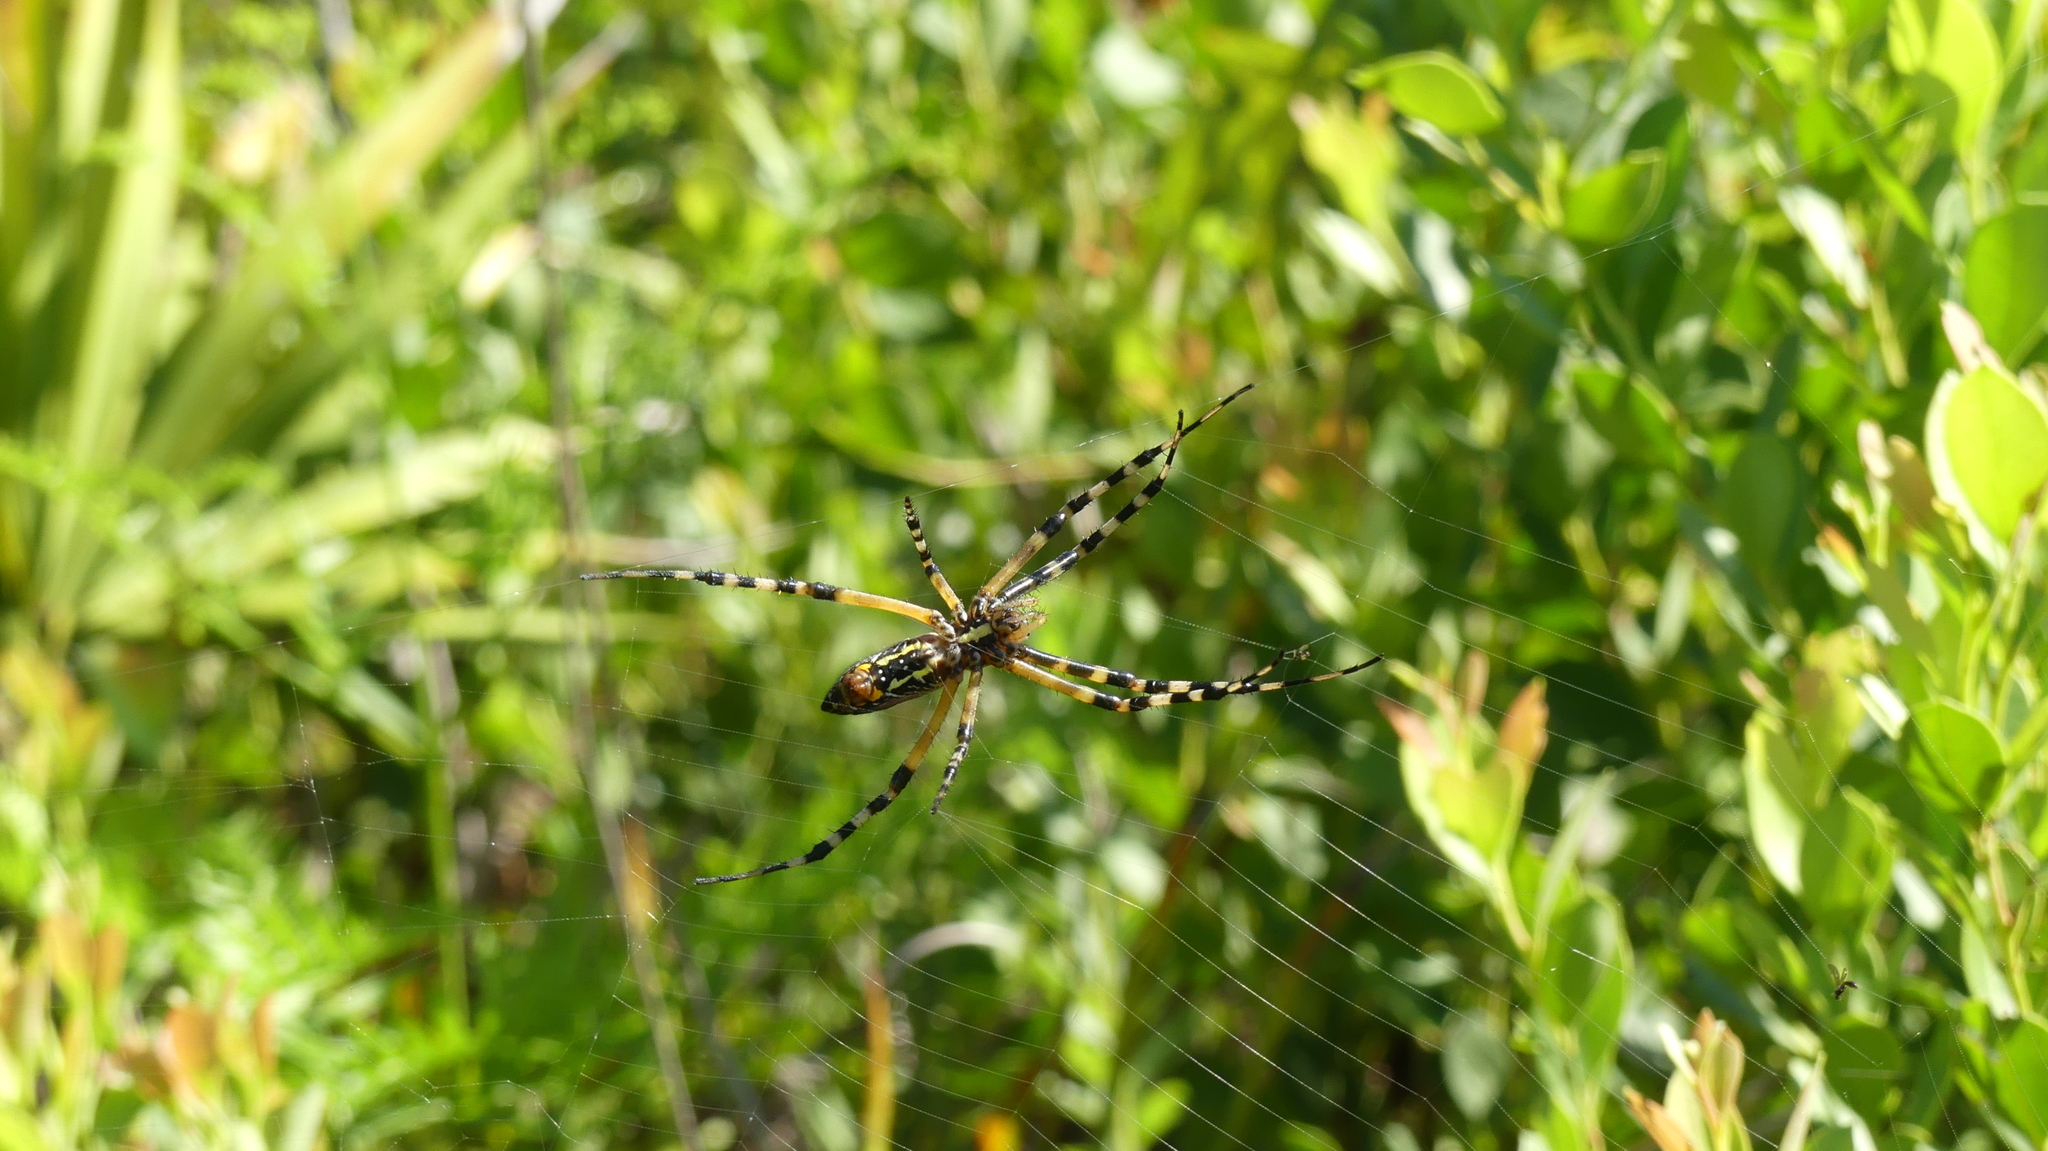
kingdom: Animalia
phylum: Arthropoda
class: Arachnida
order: Araneae
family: Araneidae
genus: Argiope
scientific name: Argiope aurantia
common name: Orb weavers
